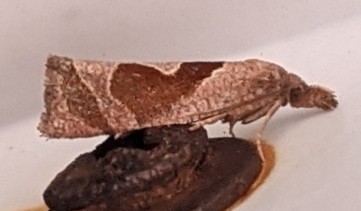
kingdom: Animalia
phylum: Arthropoda
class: Insecta
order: Lepidoptera
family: Tortricidae
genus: Pelochrista
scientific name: Pelochrista similiana
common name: Similar eucosma
